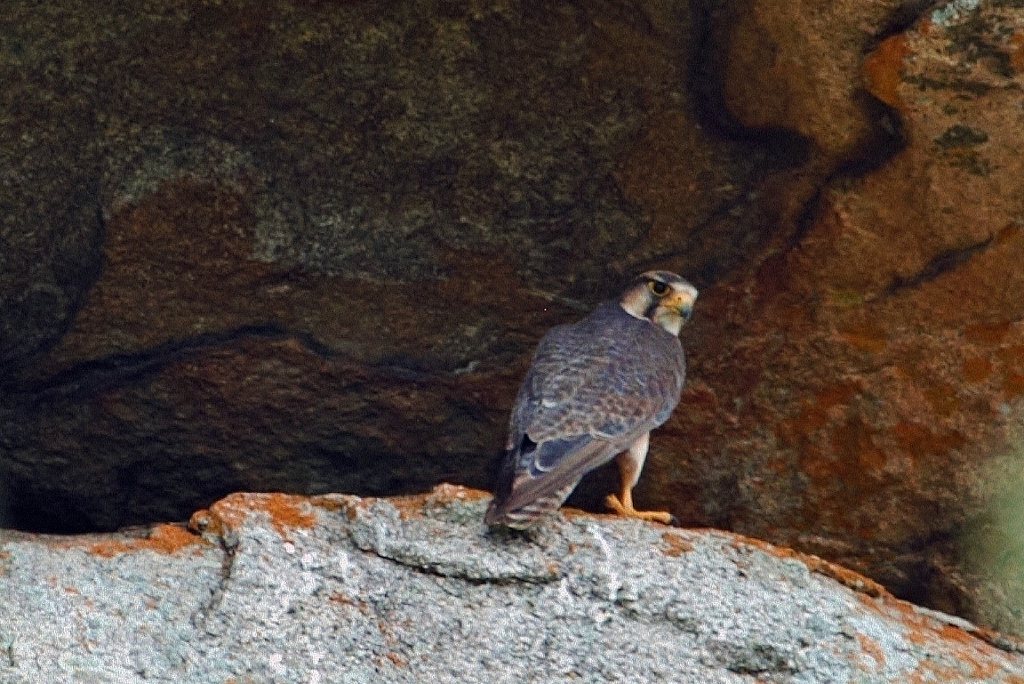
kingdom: Animalia
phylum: Chordata
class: Aves
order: Falconiformes
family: Falconidae
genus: Falco
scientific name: Falco biarmicus
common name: Lanner falcon
